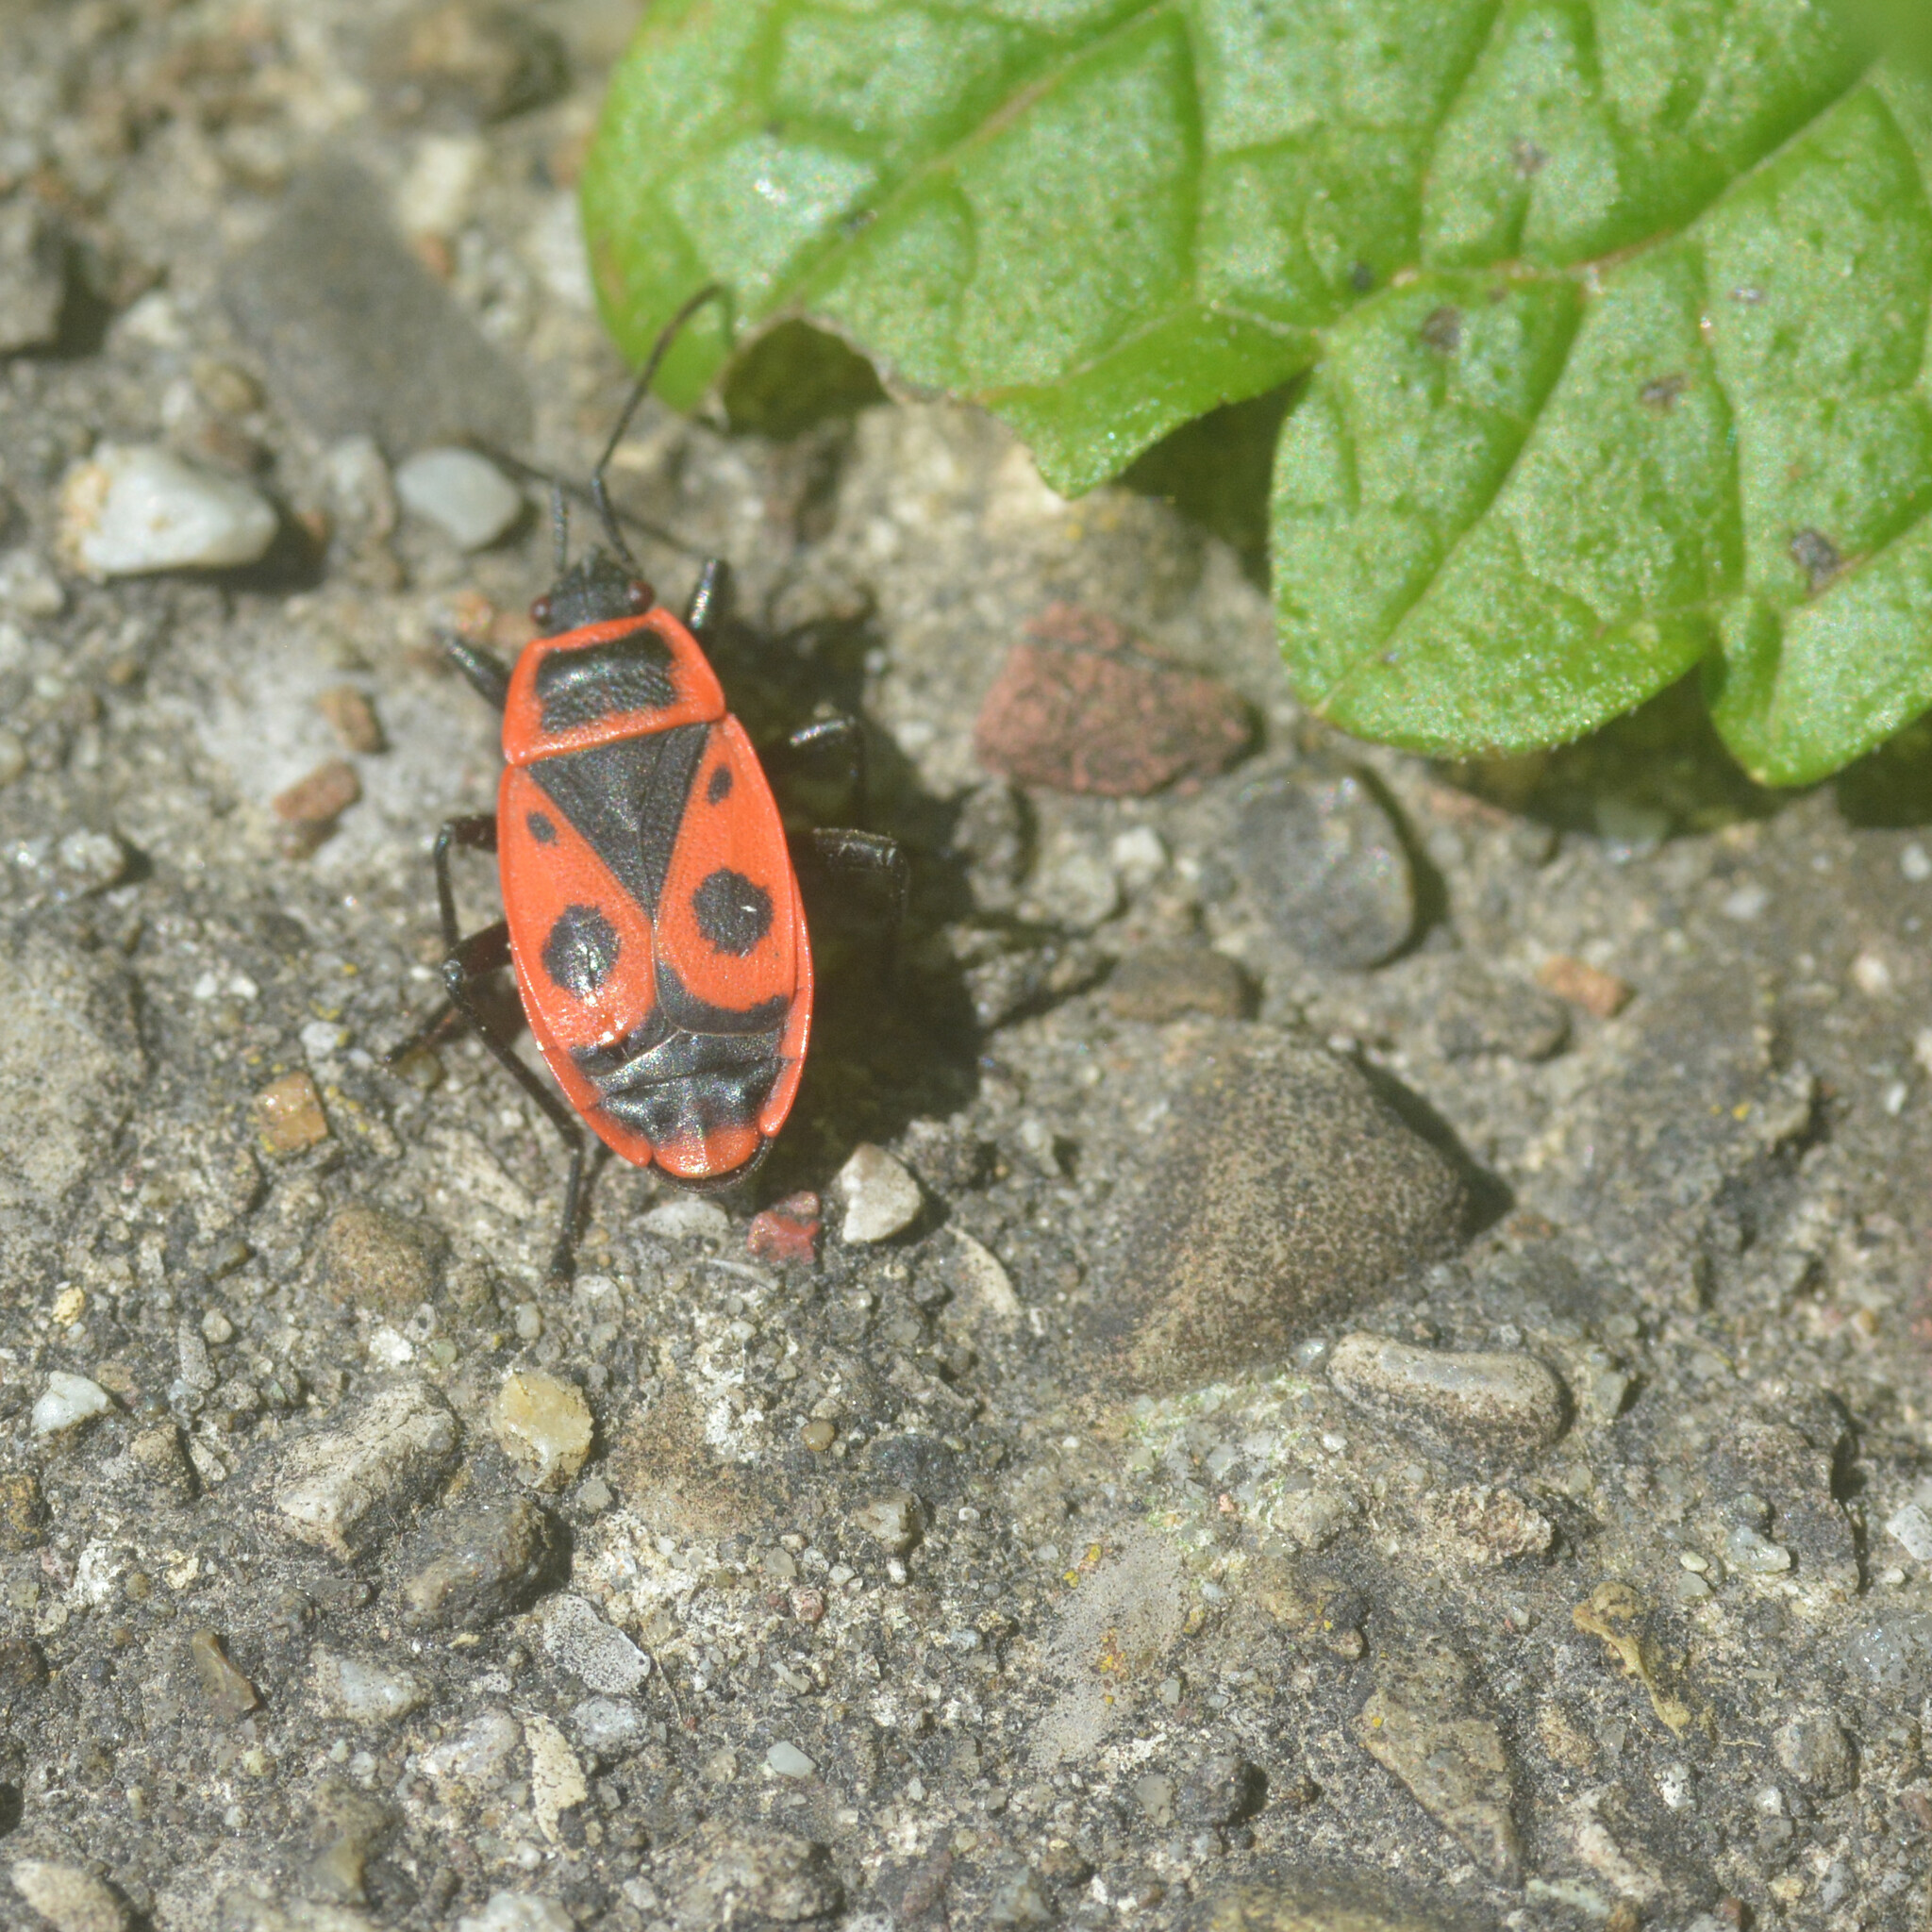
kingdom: Animalia
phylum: Arthropoda
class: Insecta
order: Hemiptera
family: Pyrrhocoridae
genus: Pyrrhocoris
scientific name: Pyrrhocoris apterus
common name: Firebug
